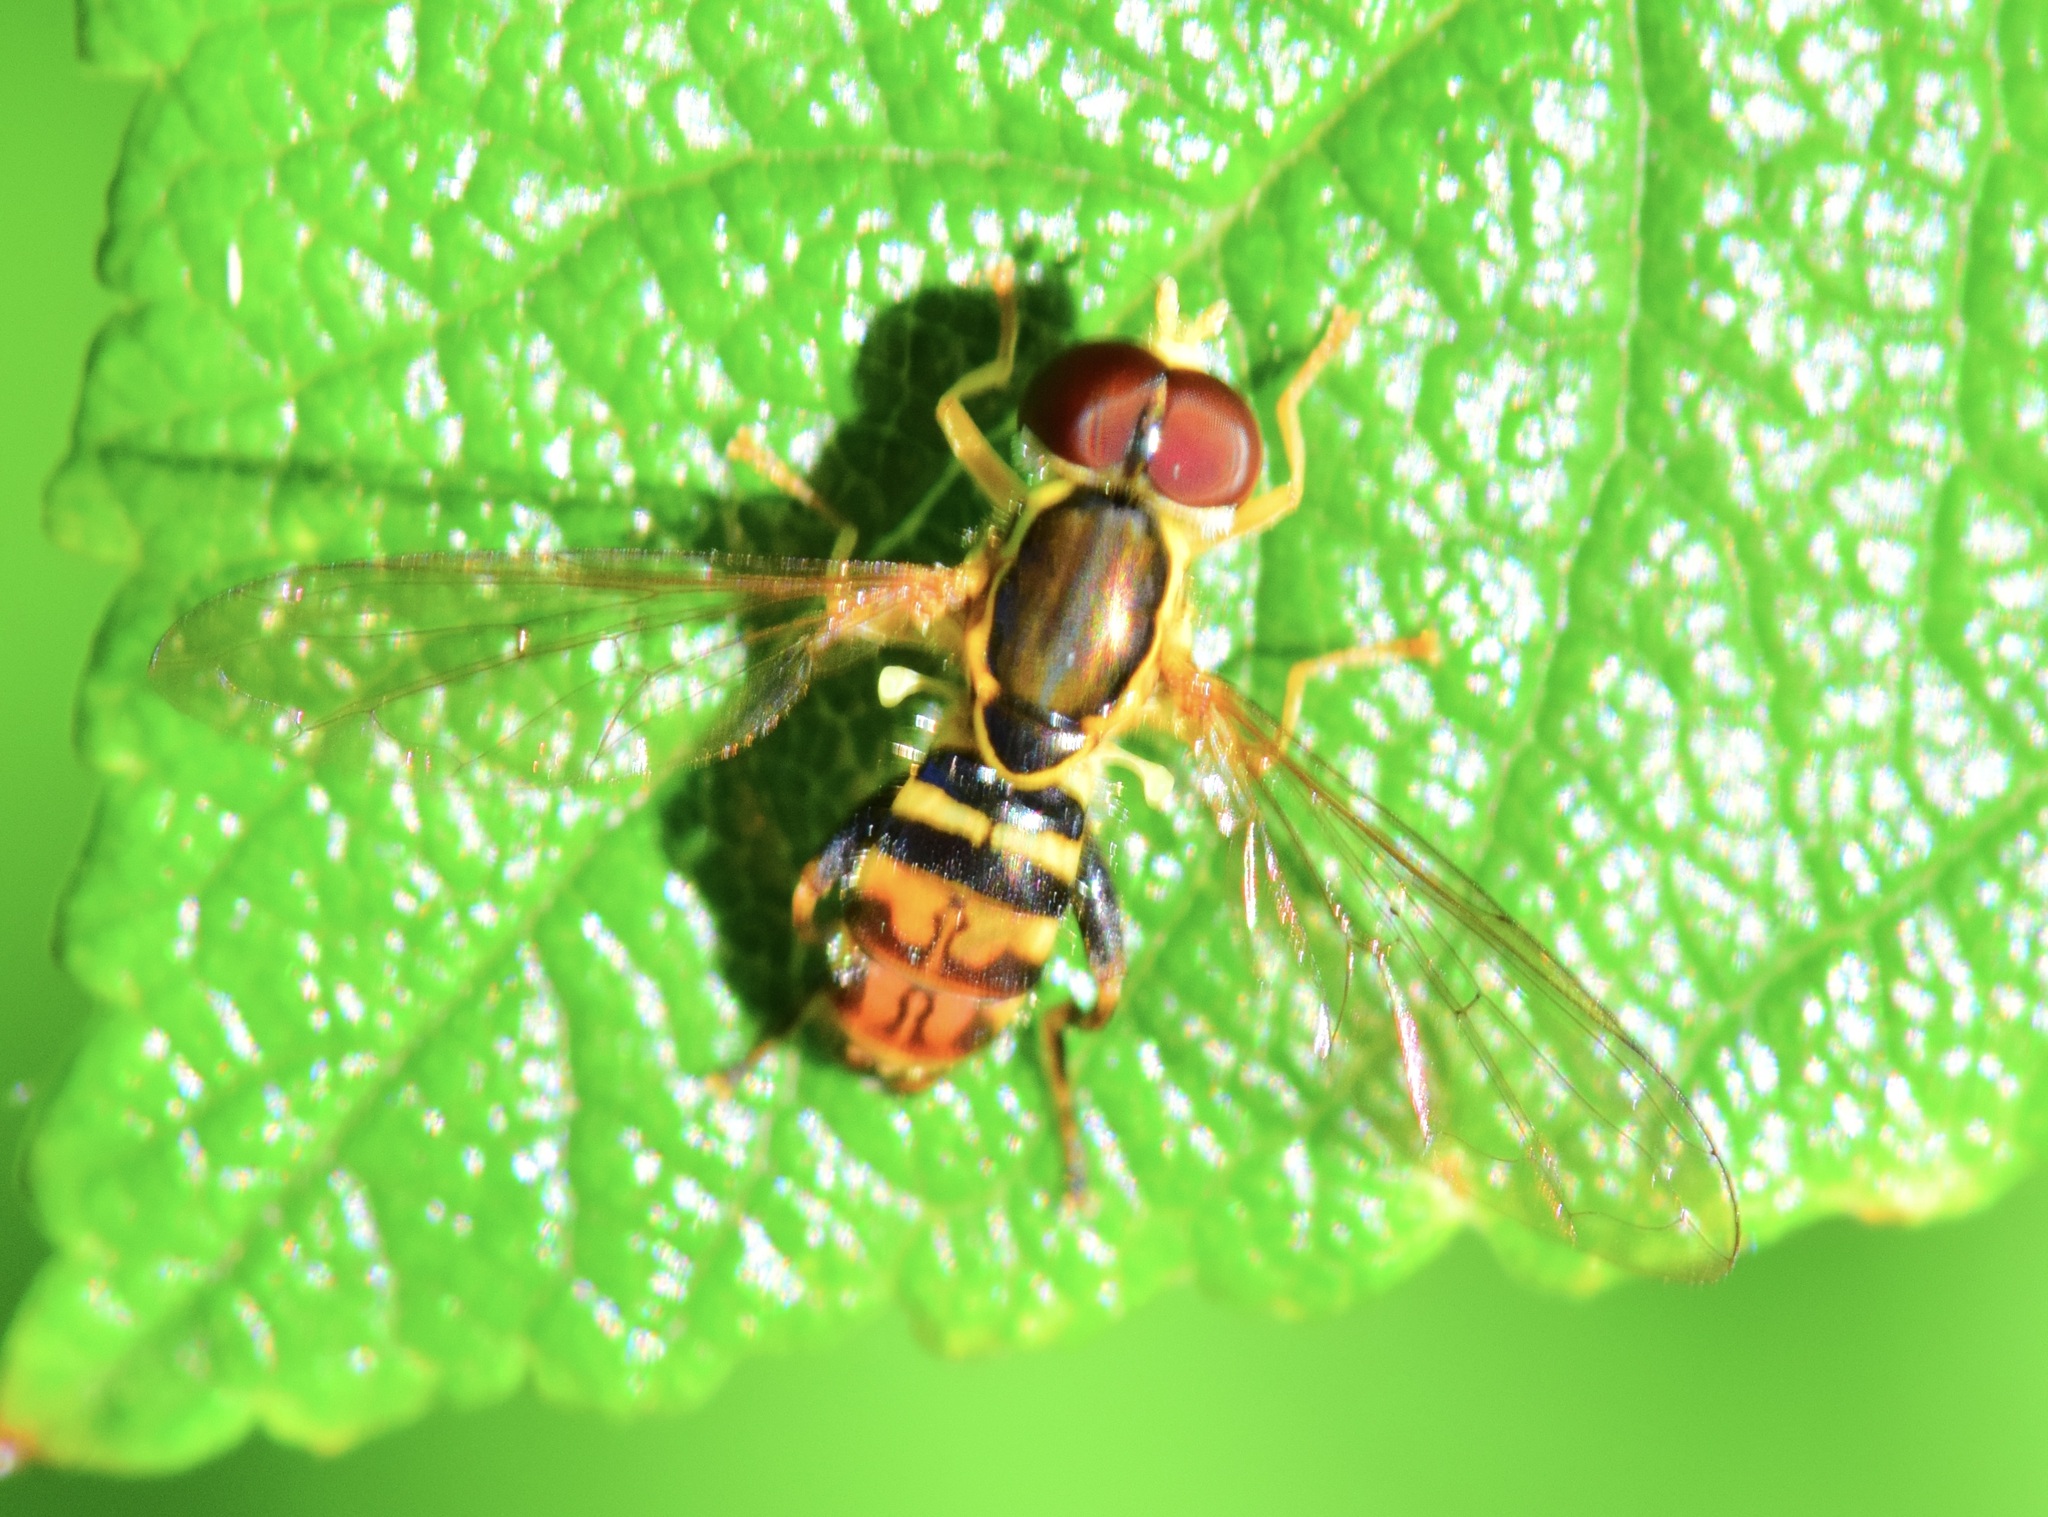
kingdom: Animalia
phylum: Arthropoda
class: Insecta
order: Diptera
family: Syrphidae
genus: Toxomerus
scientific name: Toxomerus geminatus
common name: Eastern calligrapher
